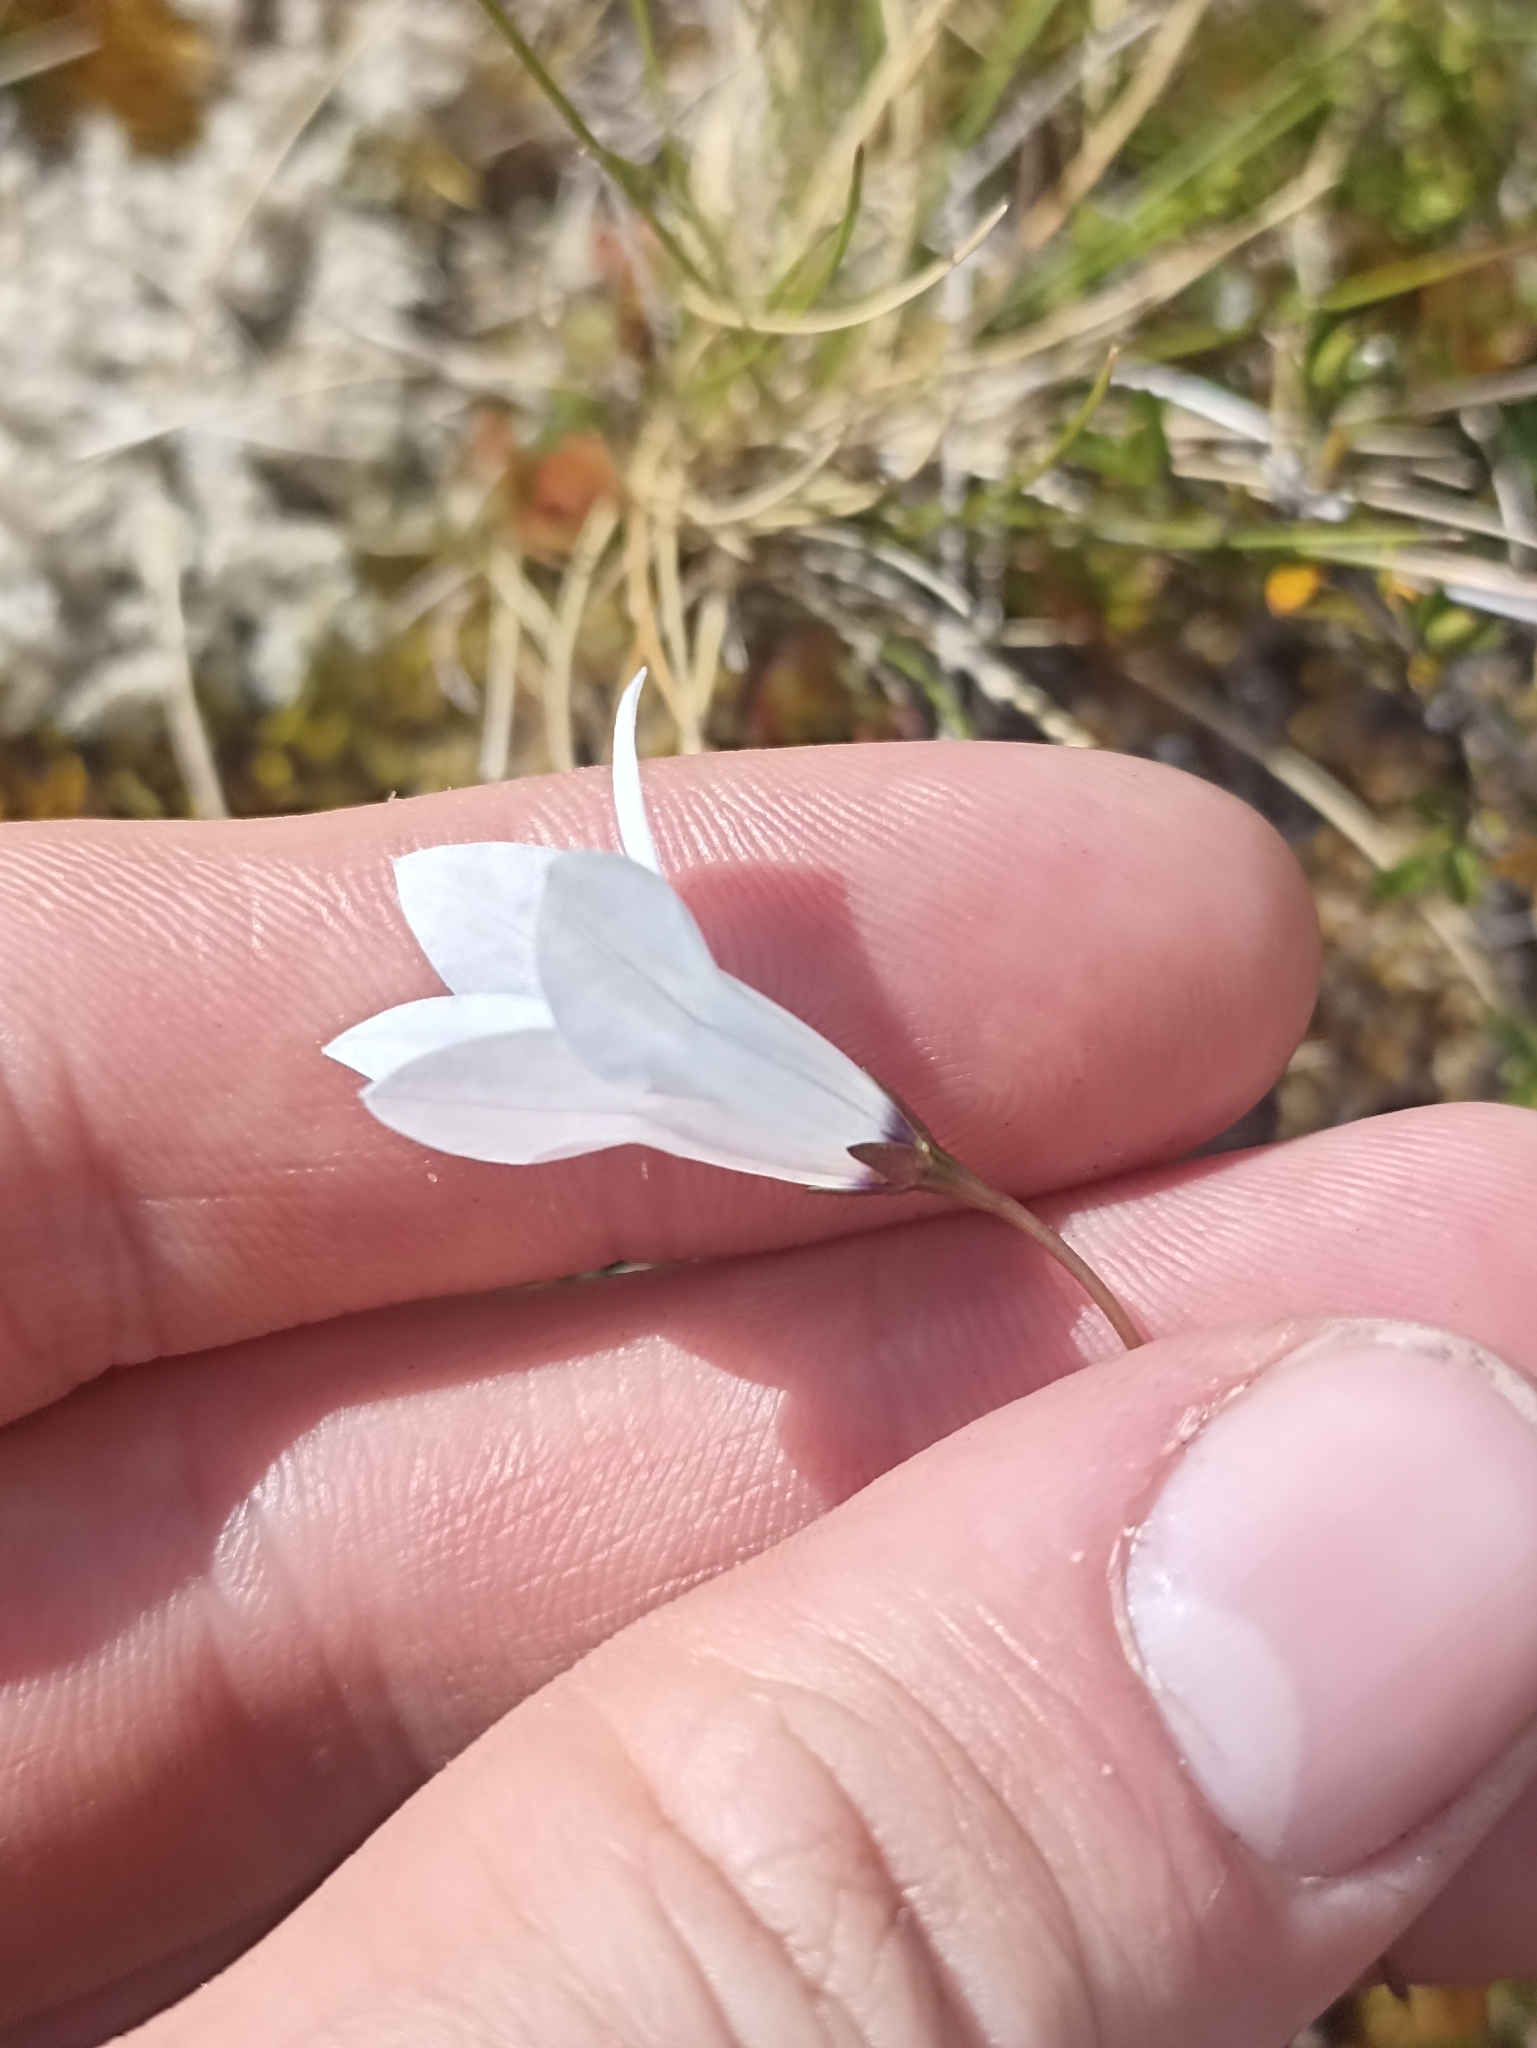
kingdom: Plantae
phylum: Tracheophyta
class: Magnoliopsida
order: Asterales
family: Campanulaceae
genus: Wahlenbergia
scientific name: Wahlenbergia albomarginata
